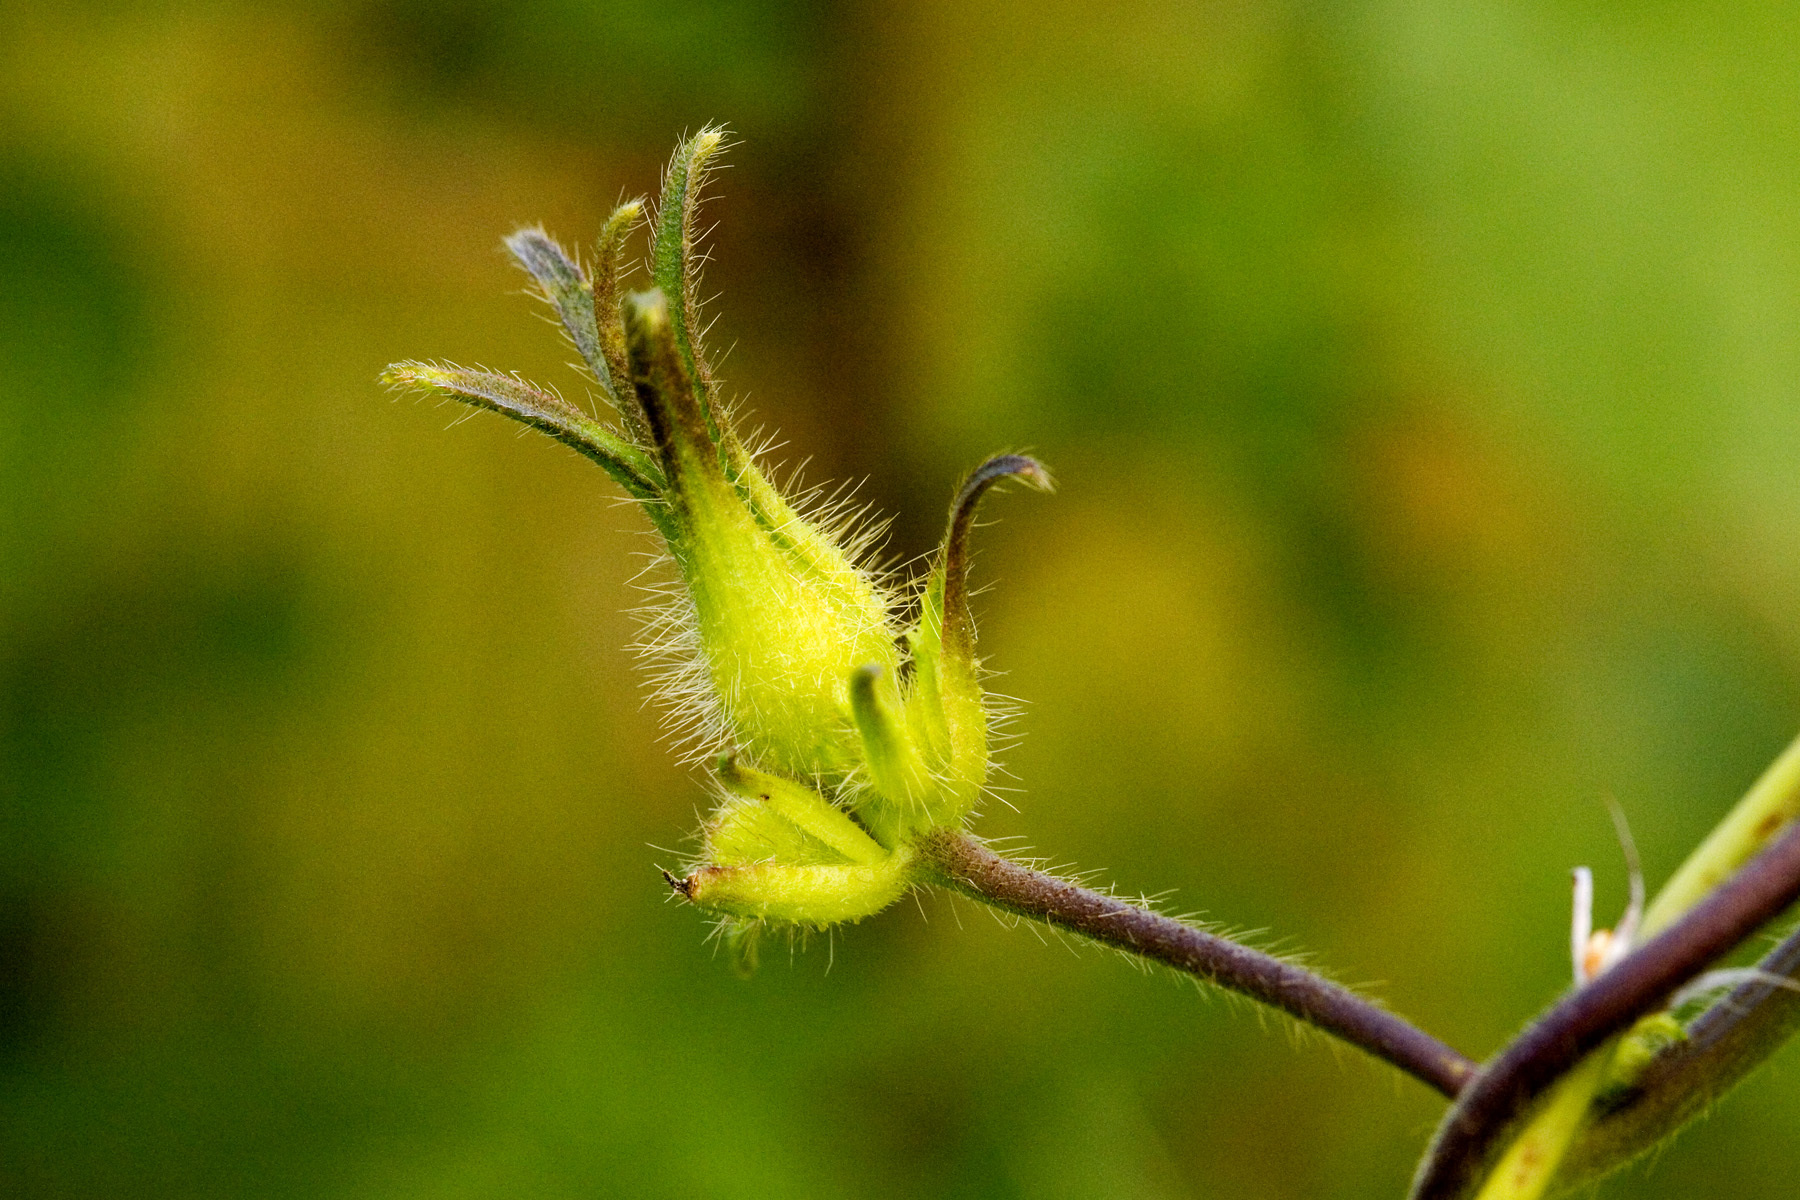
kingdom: Plantae
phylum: Tracheophyta
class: Magnoliopsida
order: Solanales
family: Convolvulaceae
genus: Ipomoea
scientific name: Ipomoea hederacea
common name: Ivy-leaved morning-glory
